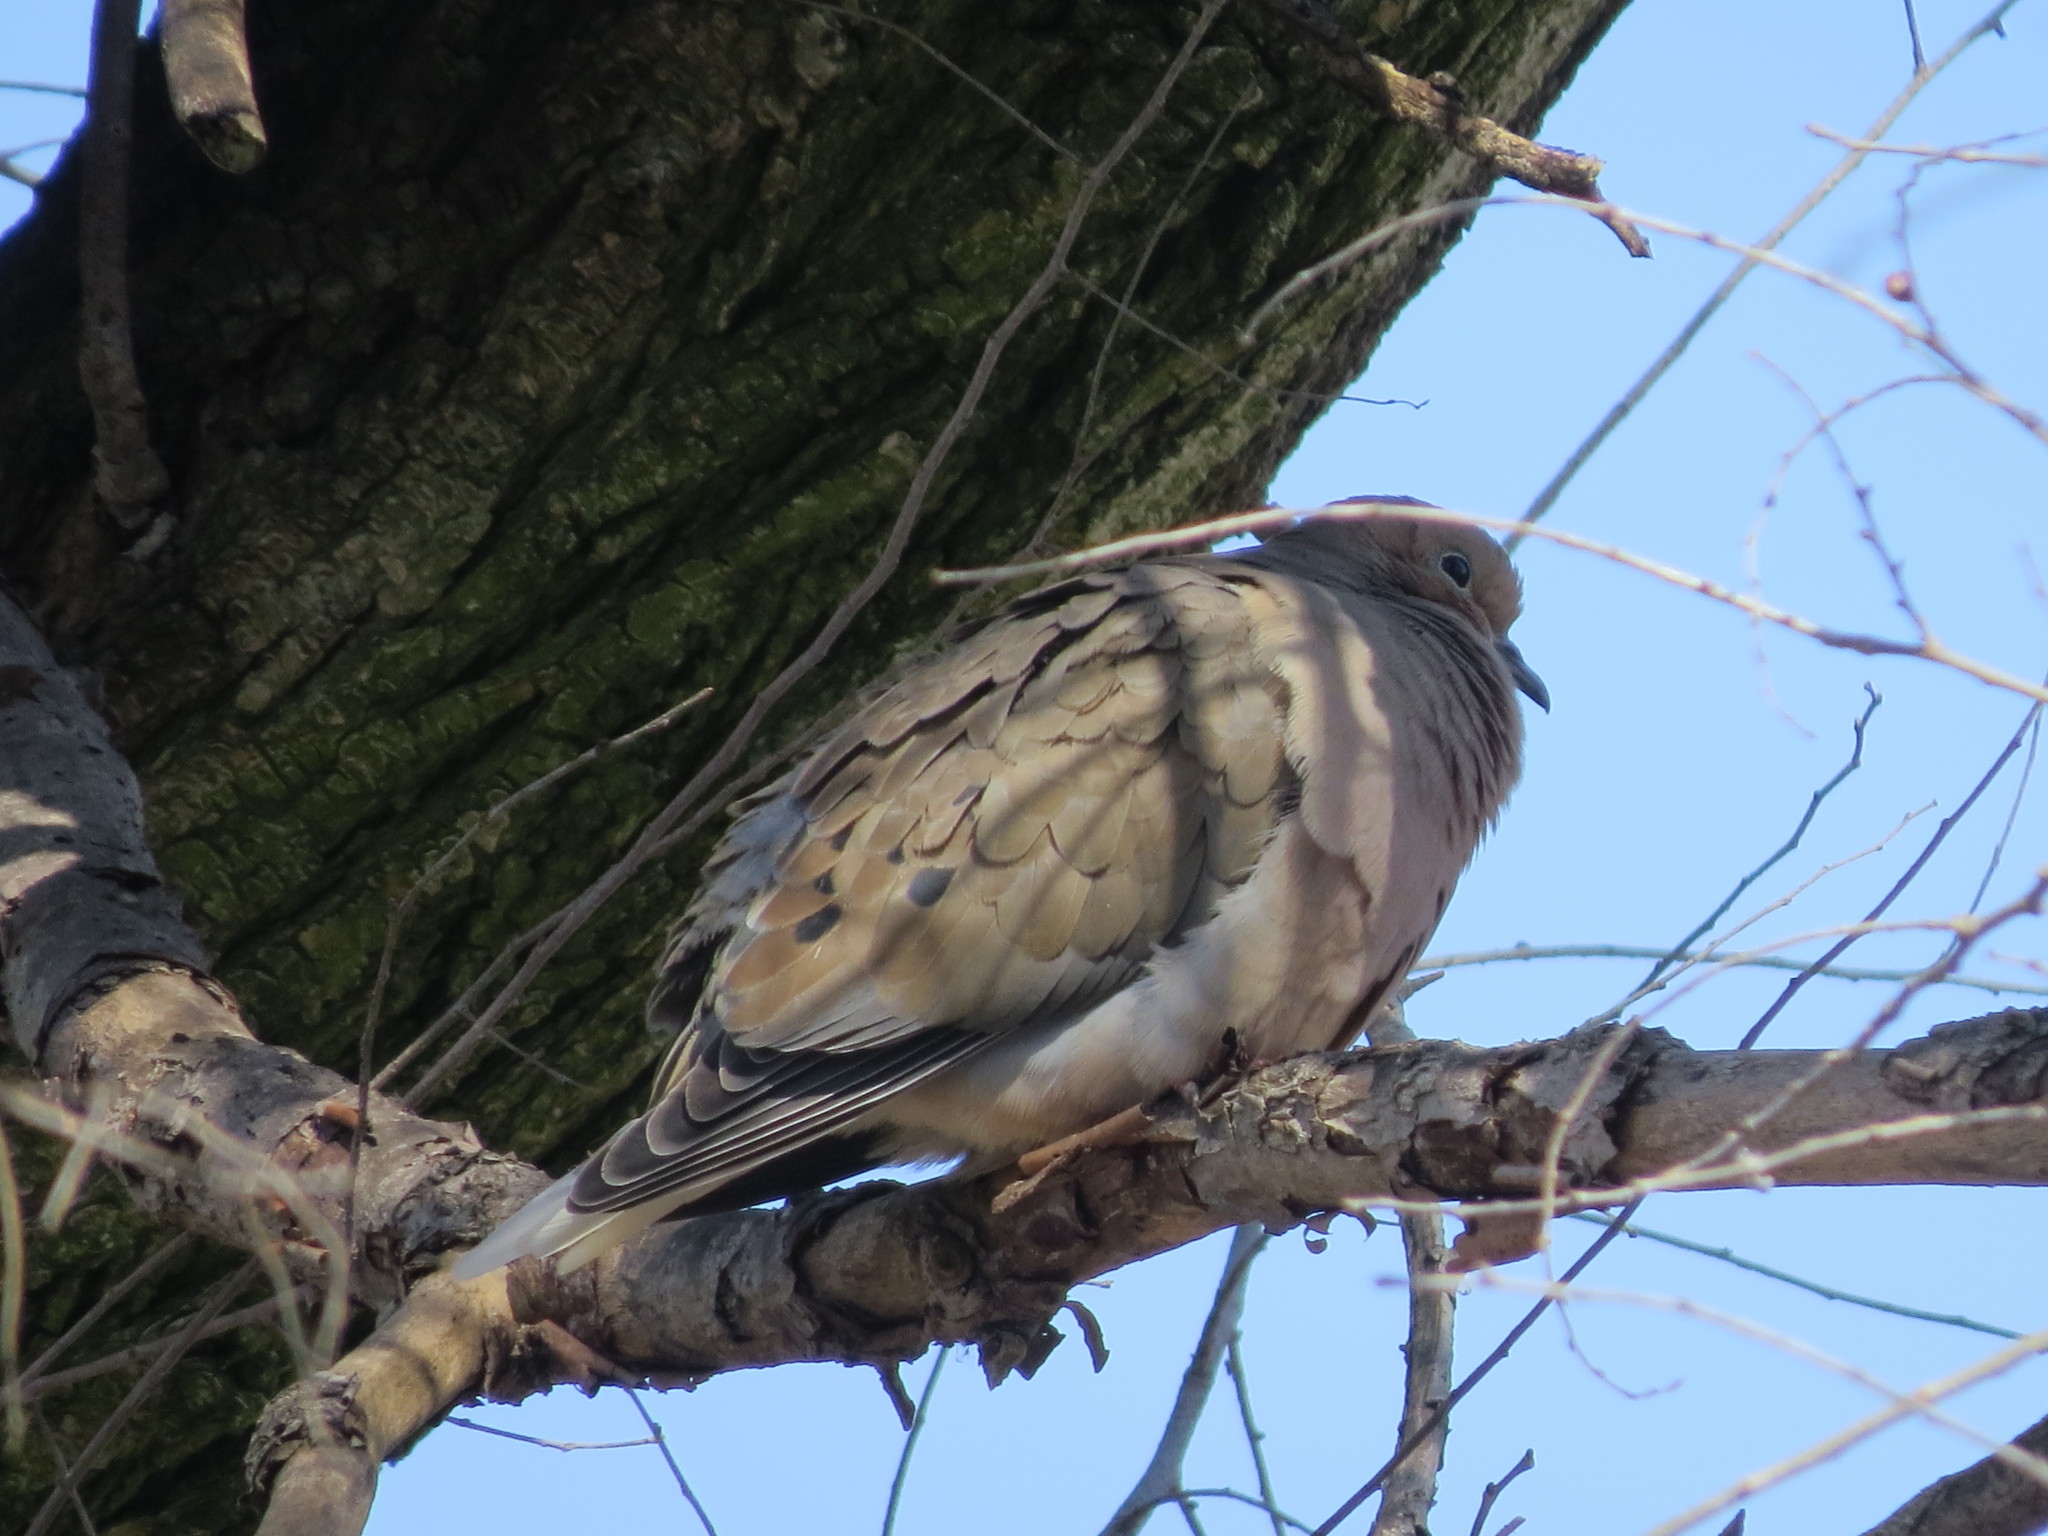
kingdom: Animalia
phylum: Chordata
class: Aves
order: Columbiformes
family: Columbidae
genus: Zenaida
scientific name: Zenaida macroura
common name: Mourning dove
